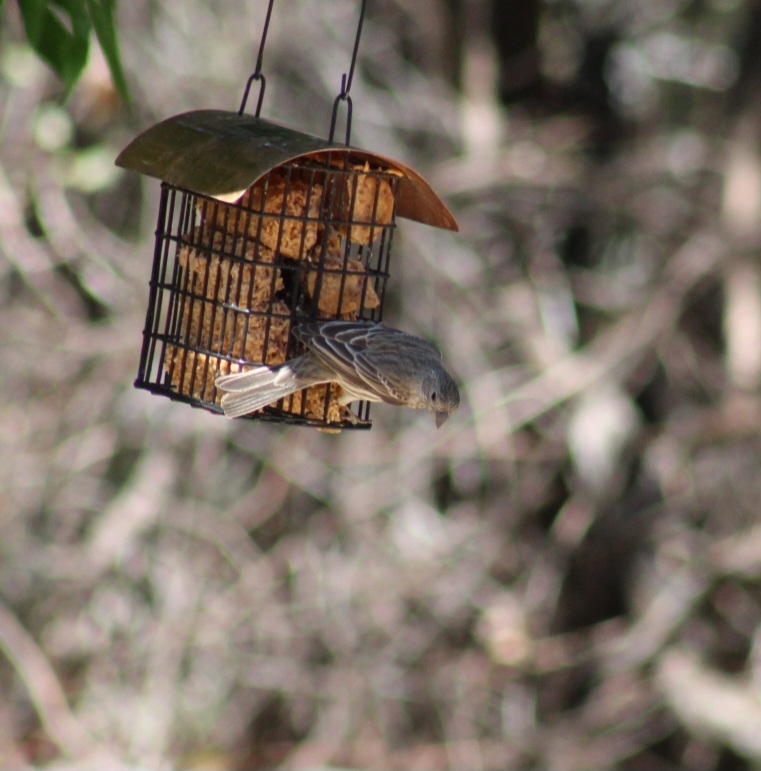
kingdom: Animalia
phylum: Chordata
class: Aves
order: Passeriformes
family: Fringillidae
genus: Haemorhous
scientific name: Haemorhous mexicanus
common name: House finch
